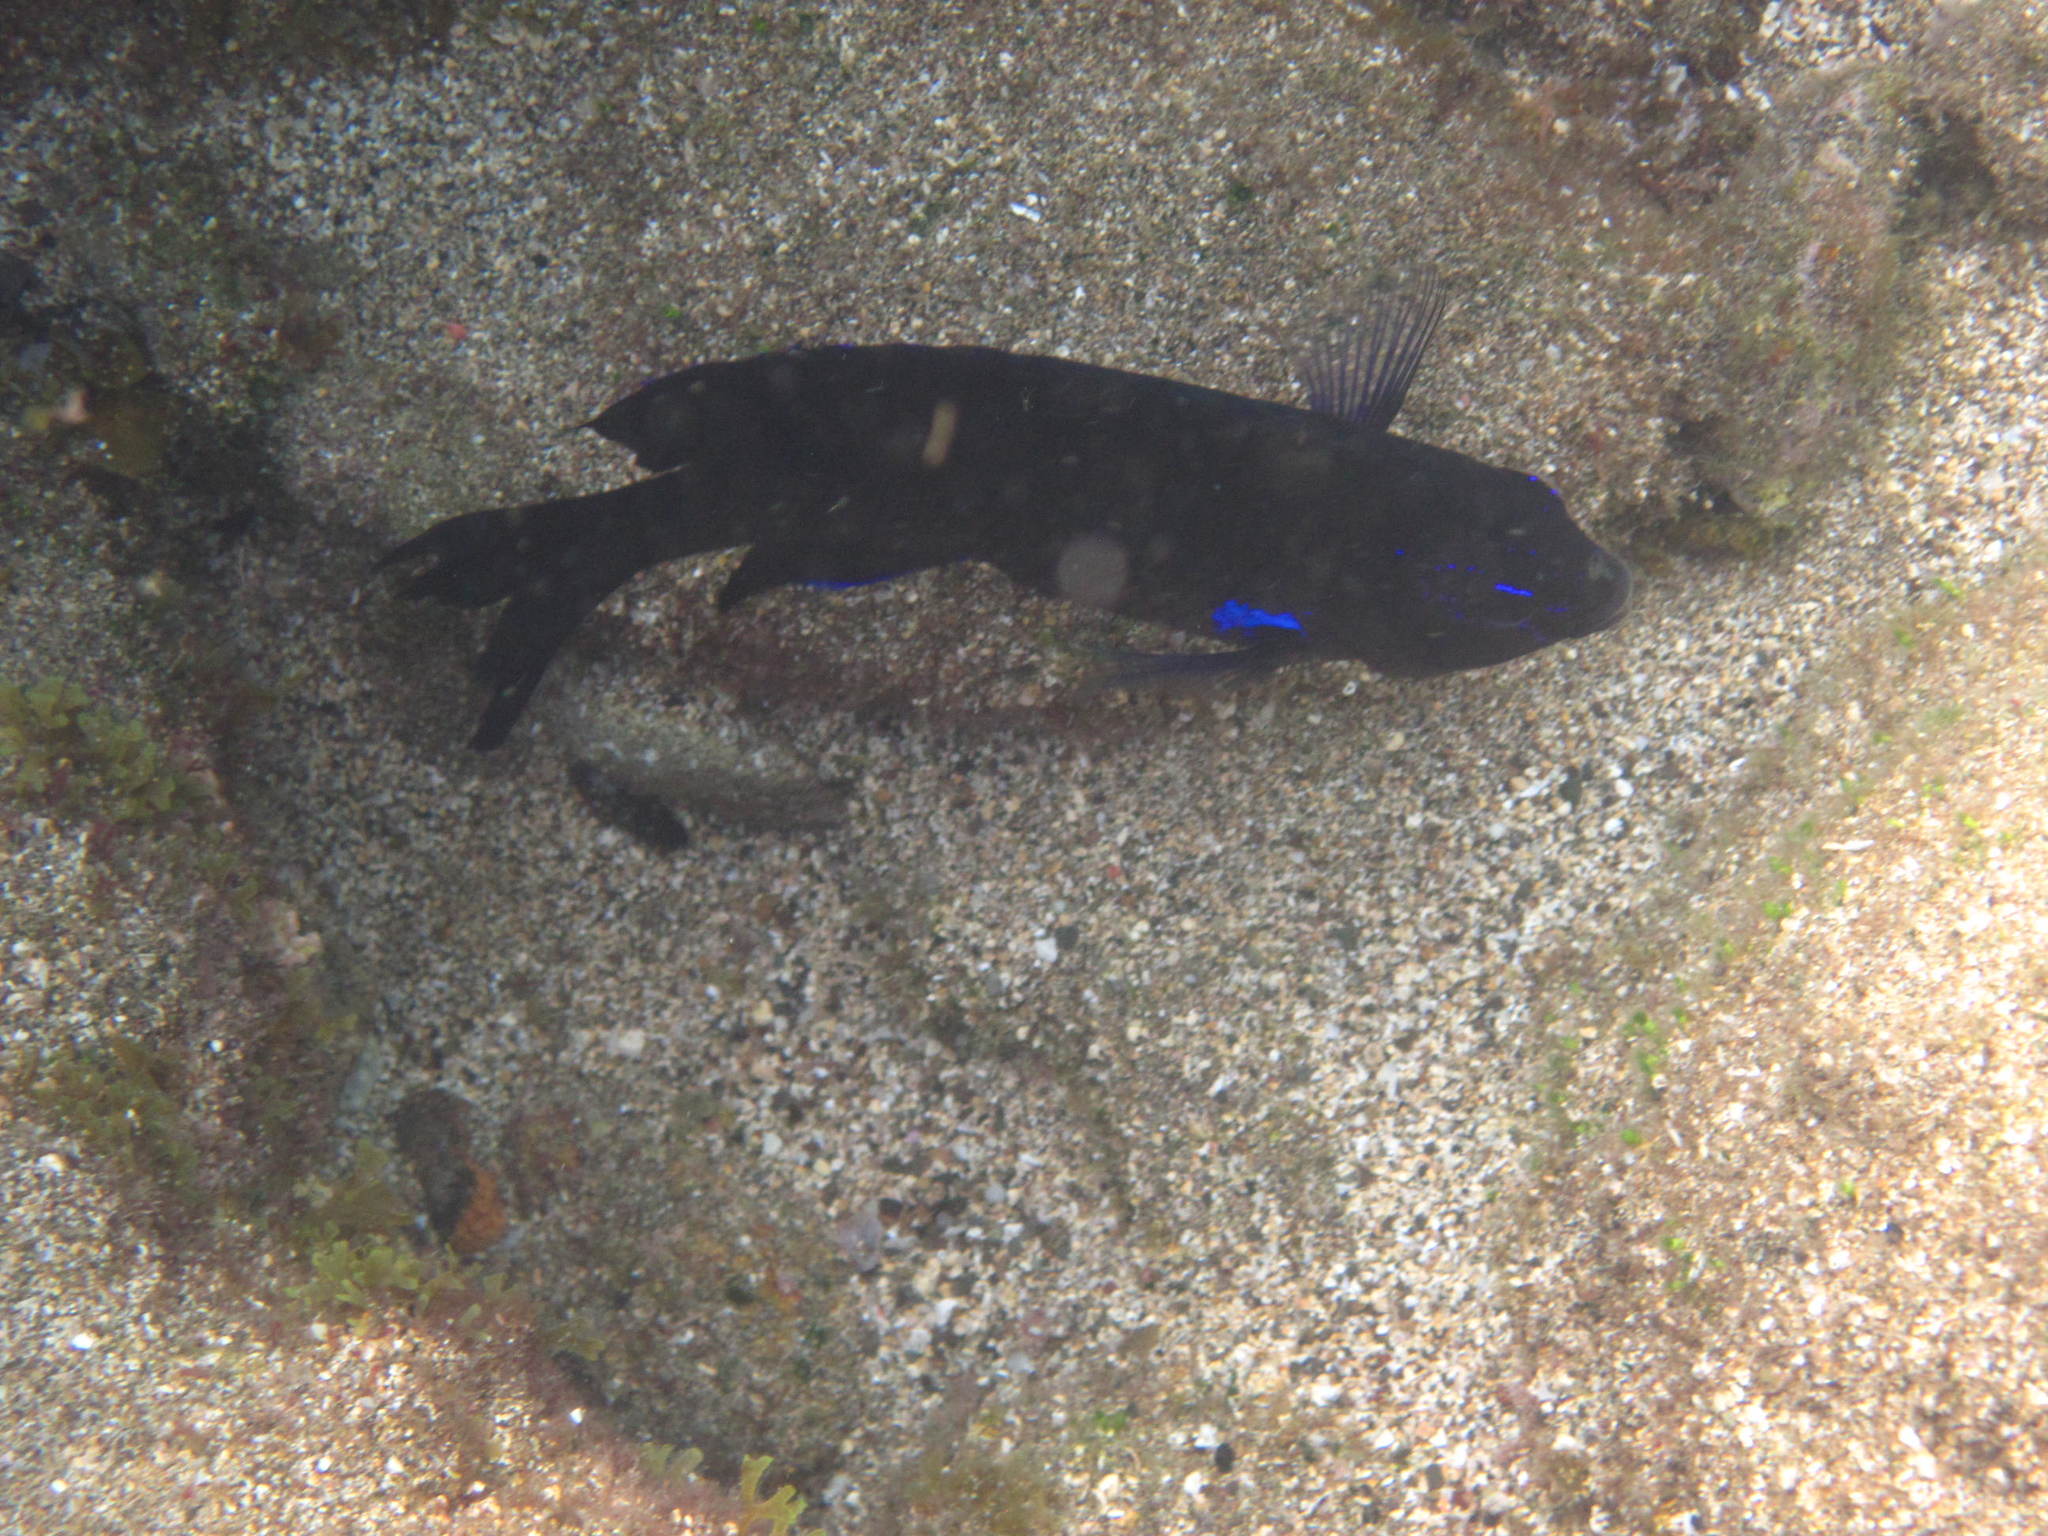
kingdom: Animalia
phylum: Chordata
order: Perciformes
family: Pomacentridae
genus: Similiparma
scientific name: Similiparma lurida
